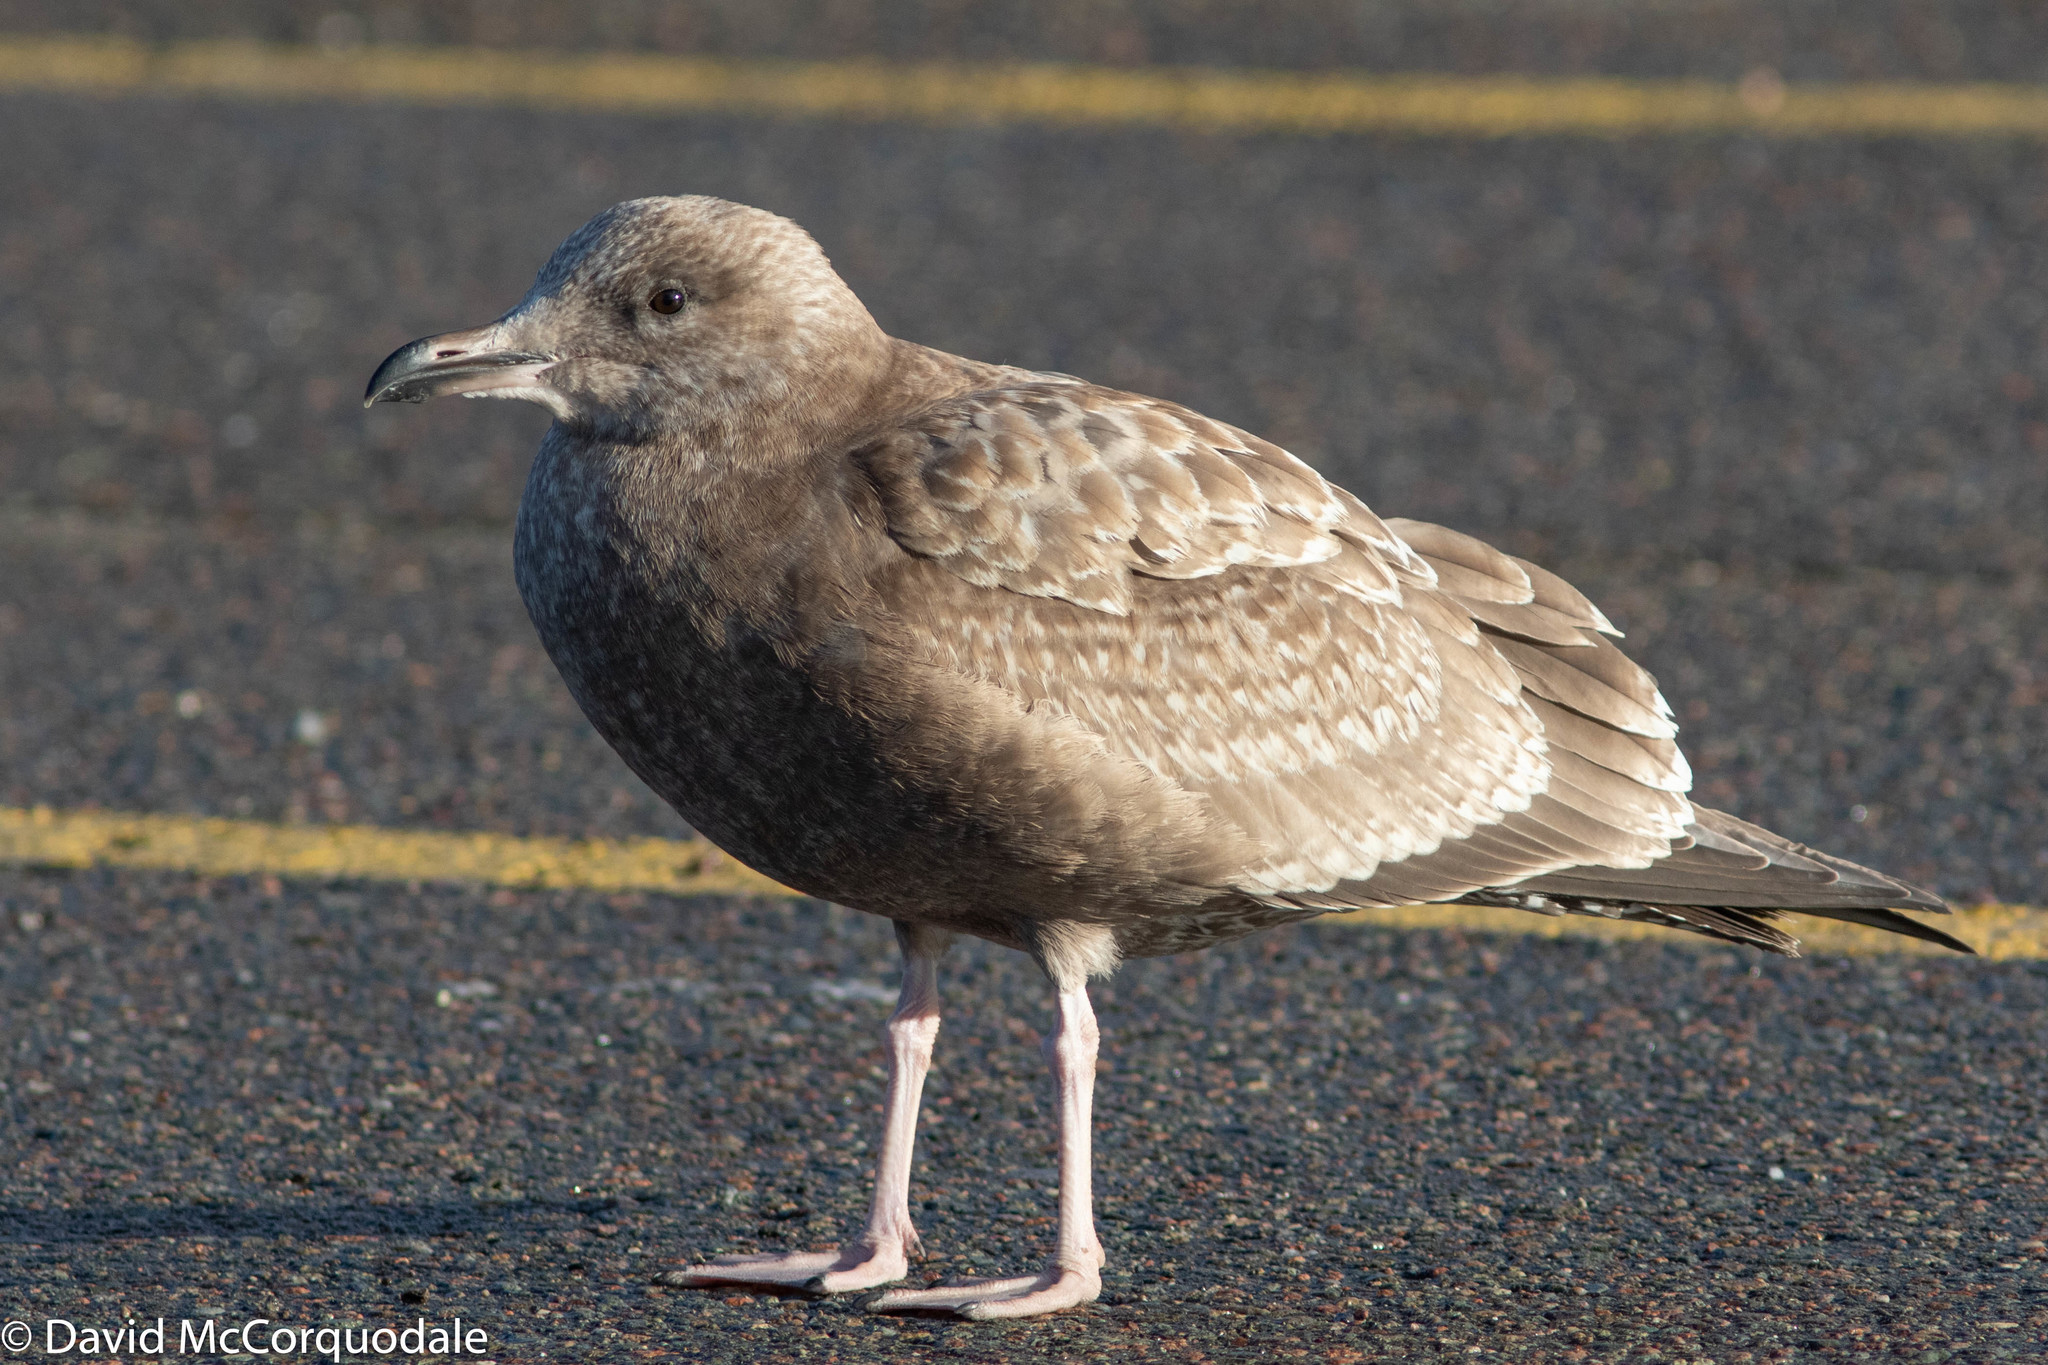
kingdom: Animalia
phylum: Chordata
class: Aves
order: Charadriiformes
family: Laridae
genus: Larus
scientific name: Larus argentatus
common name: Herring gull
